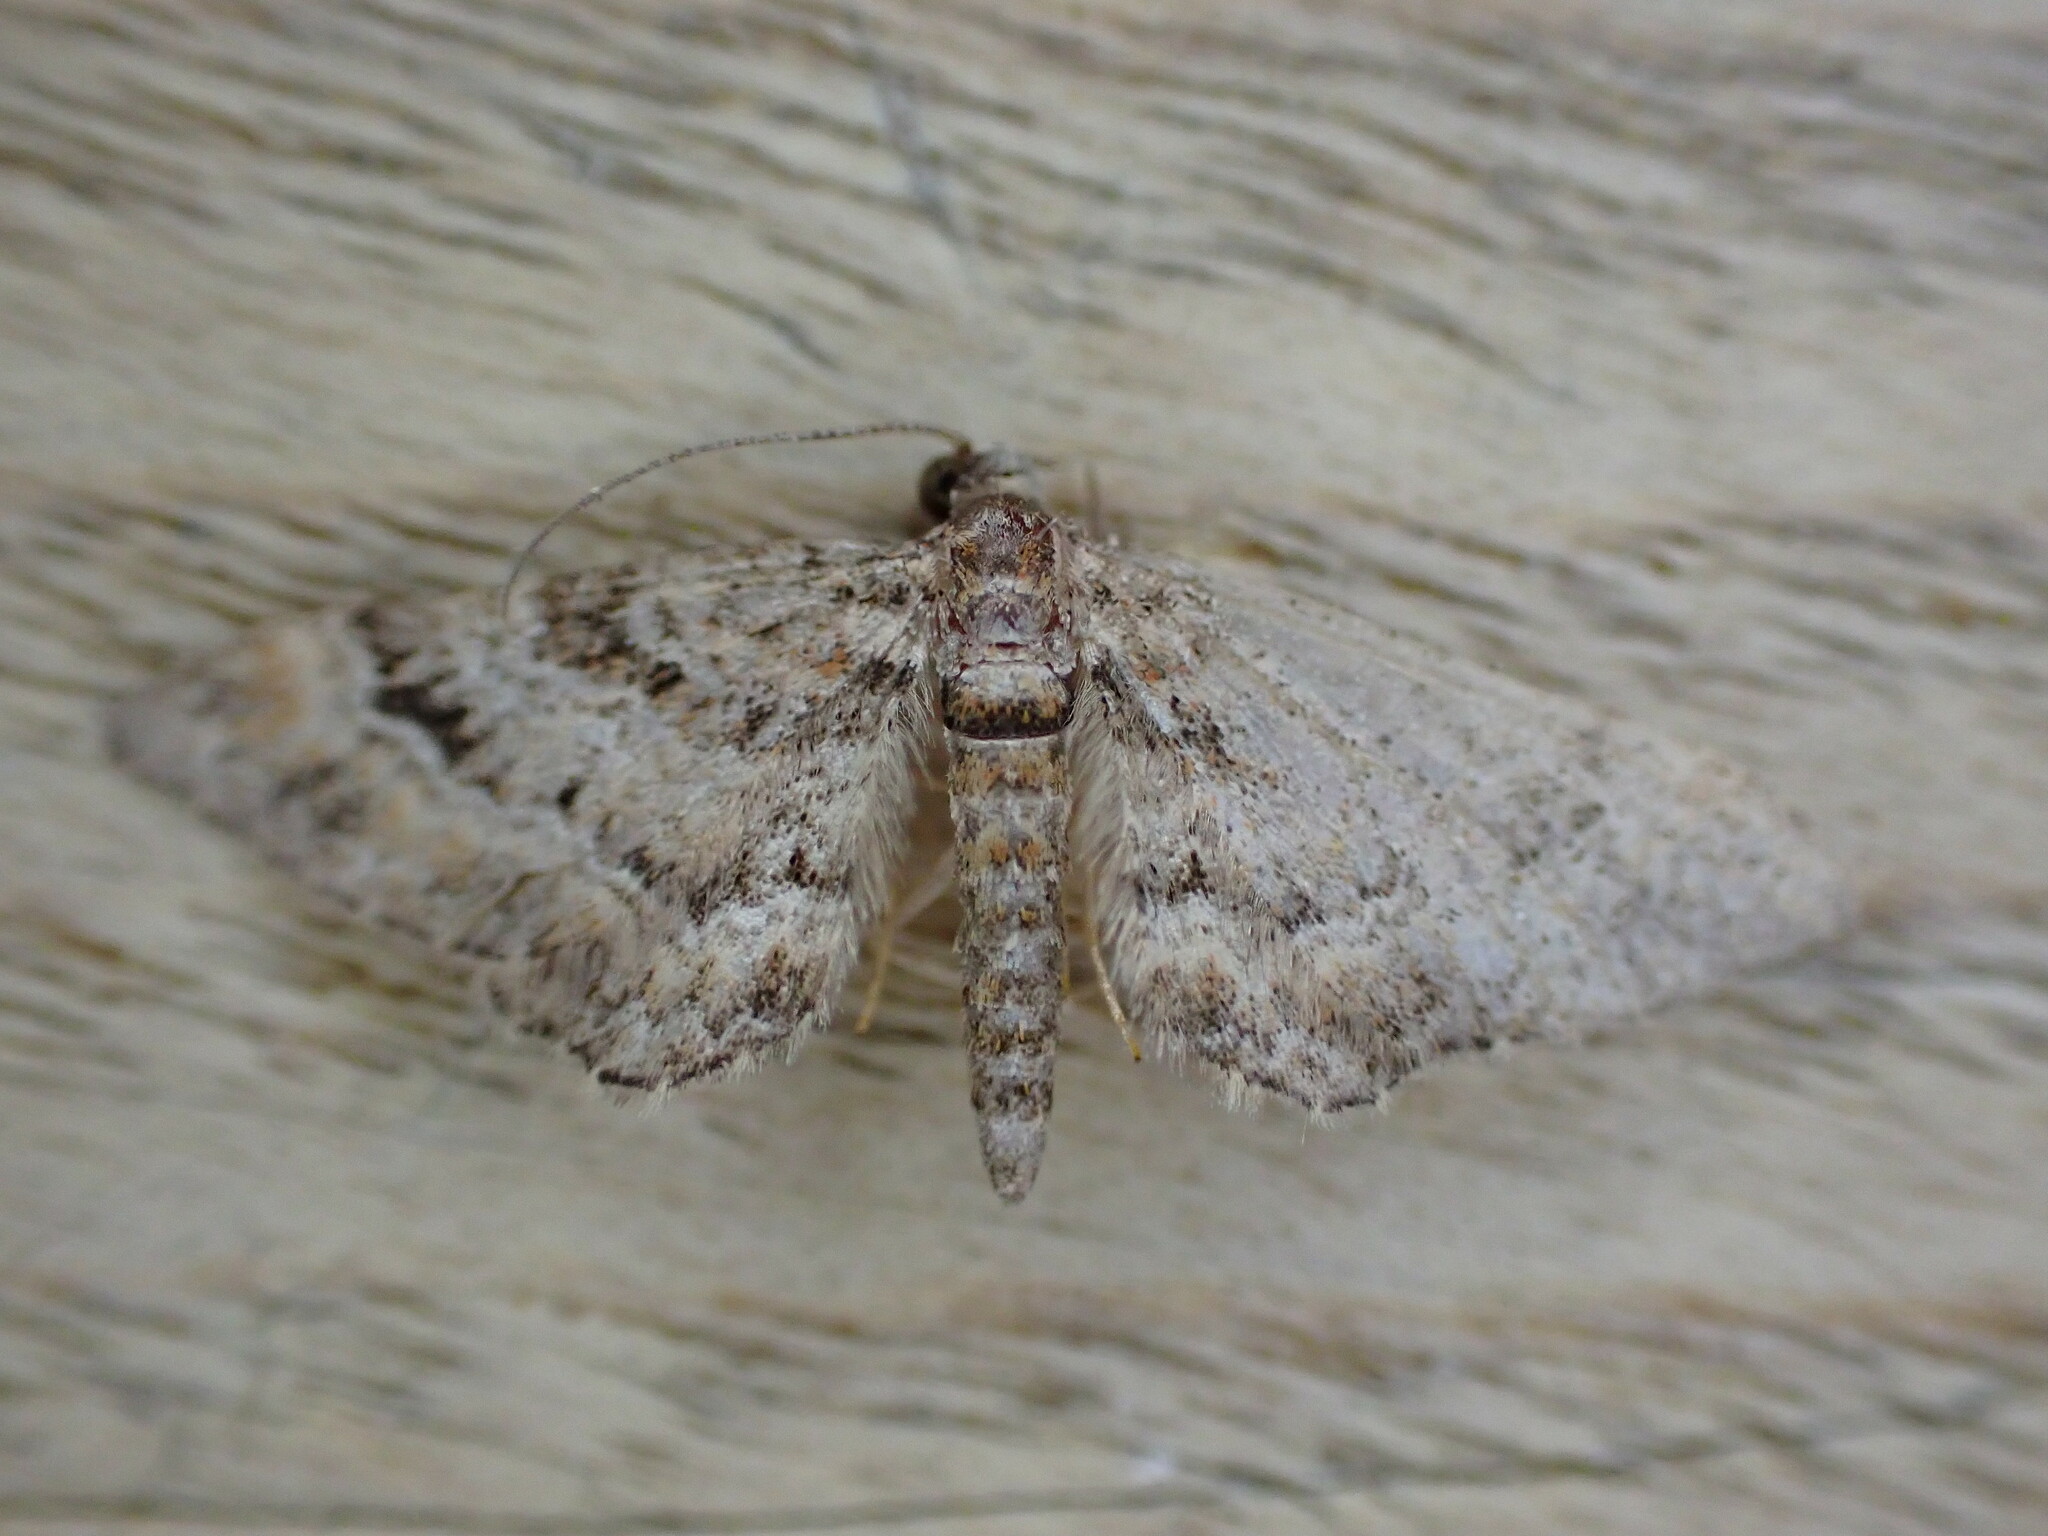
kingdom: Animalia
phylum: Arthropoda
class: Insecta
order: Lepidoptera
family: Geometridae
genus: Gymnoscelis
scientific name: Gymnoscelis rufifasciata
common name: Double-striped pug
